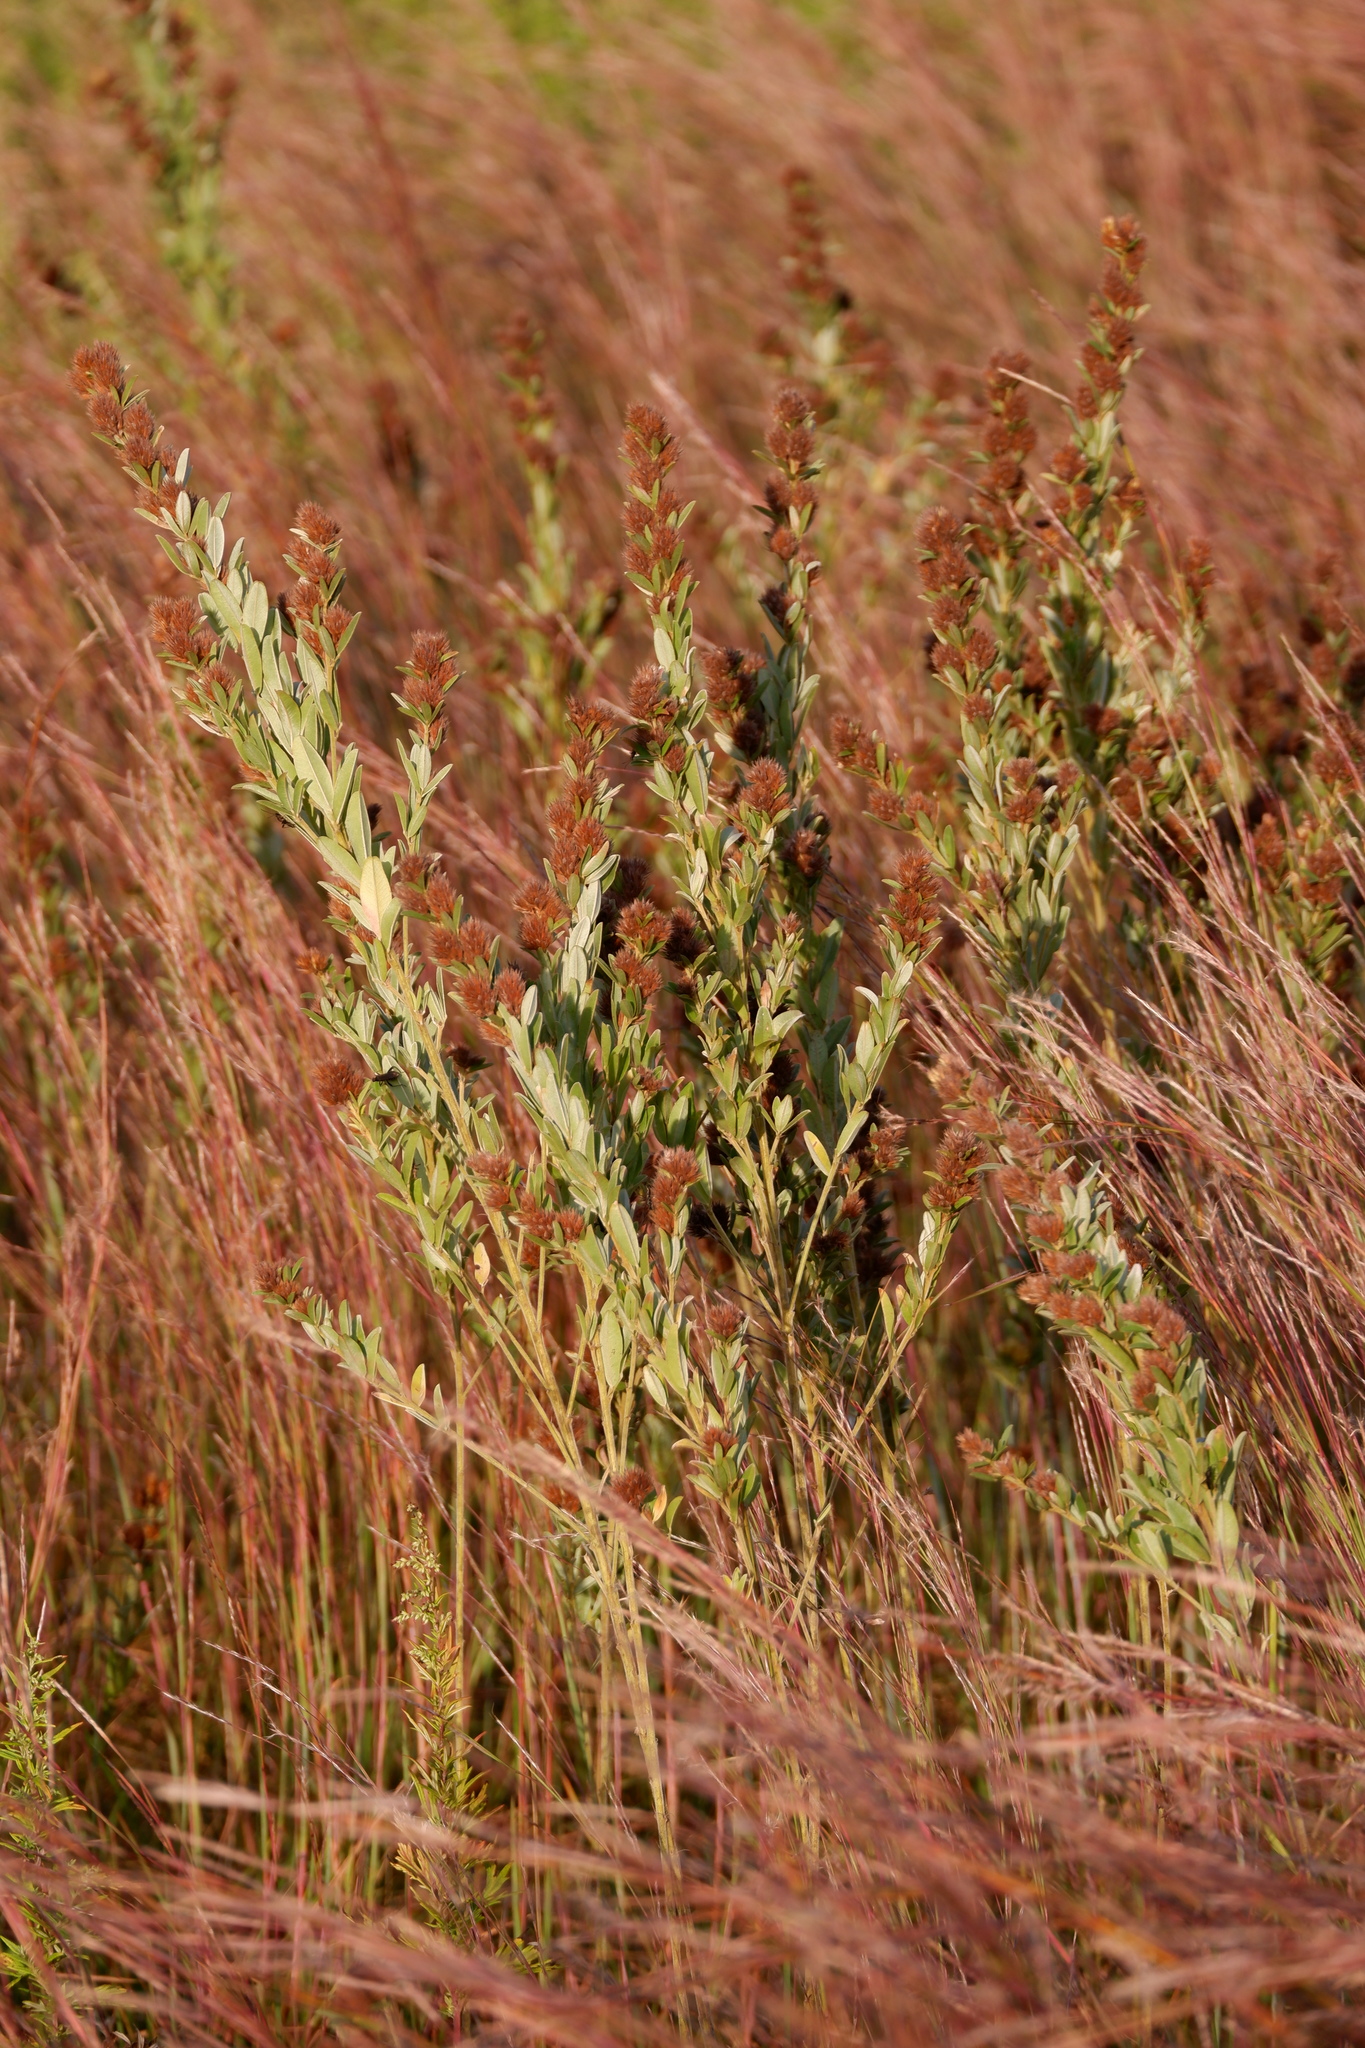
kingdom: Plantae
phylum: Tracheophyta
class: Magnoliopsida
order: Fabales
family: Fabaceae
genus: Lespedeza
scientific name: Lespedeza capitata
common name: Dusty clover
